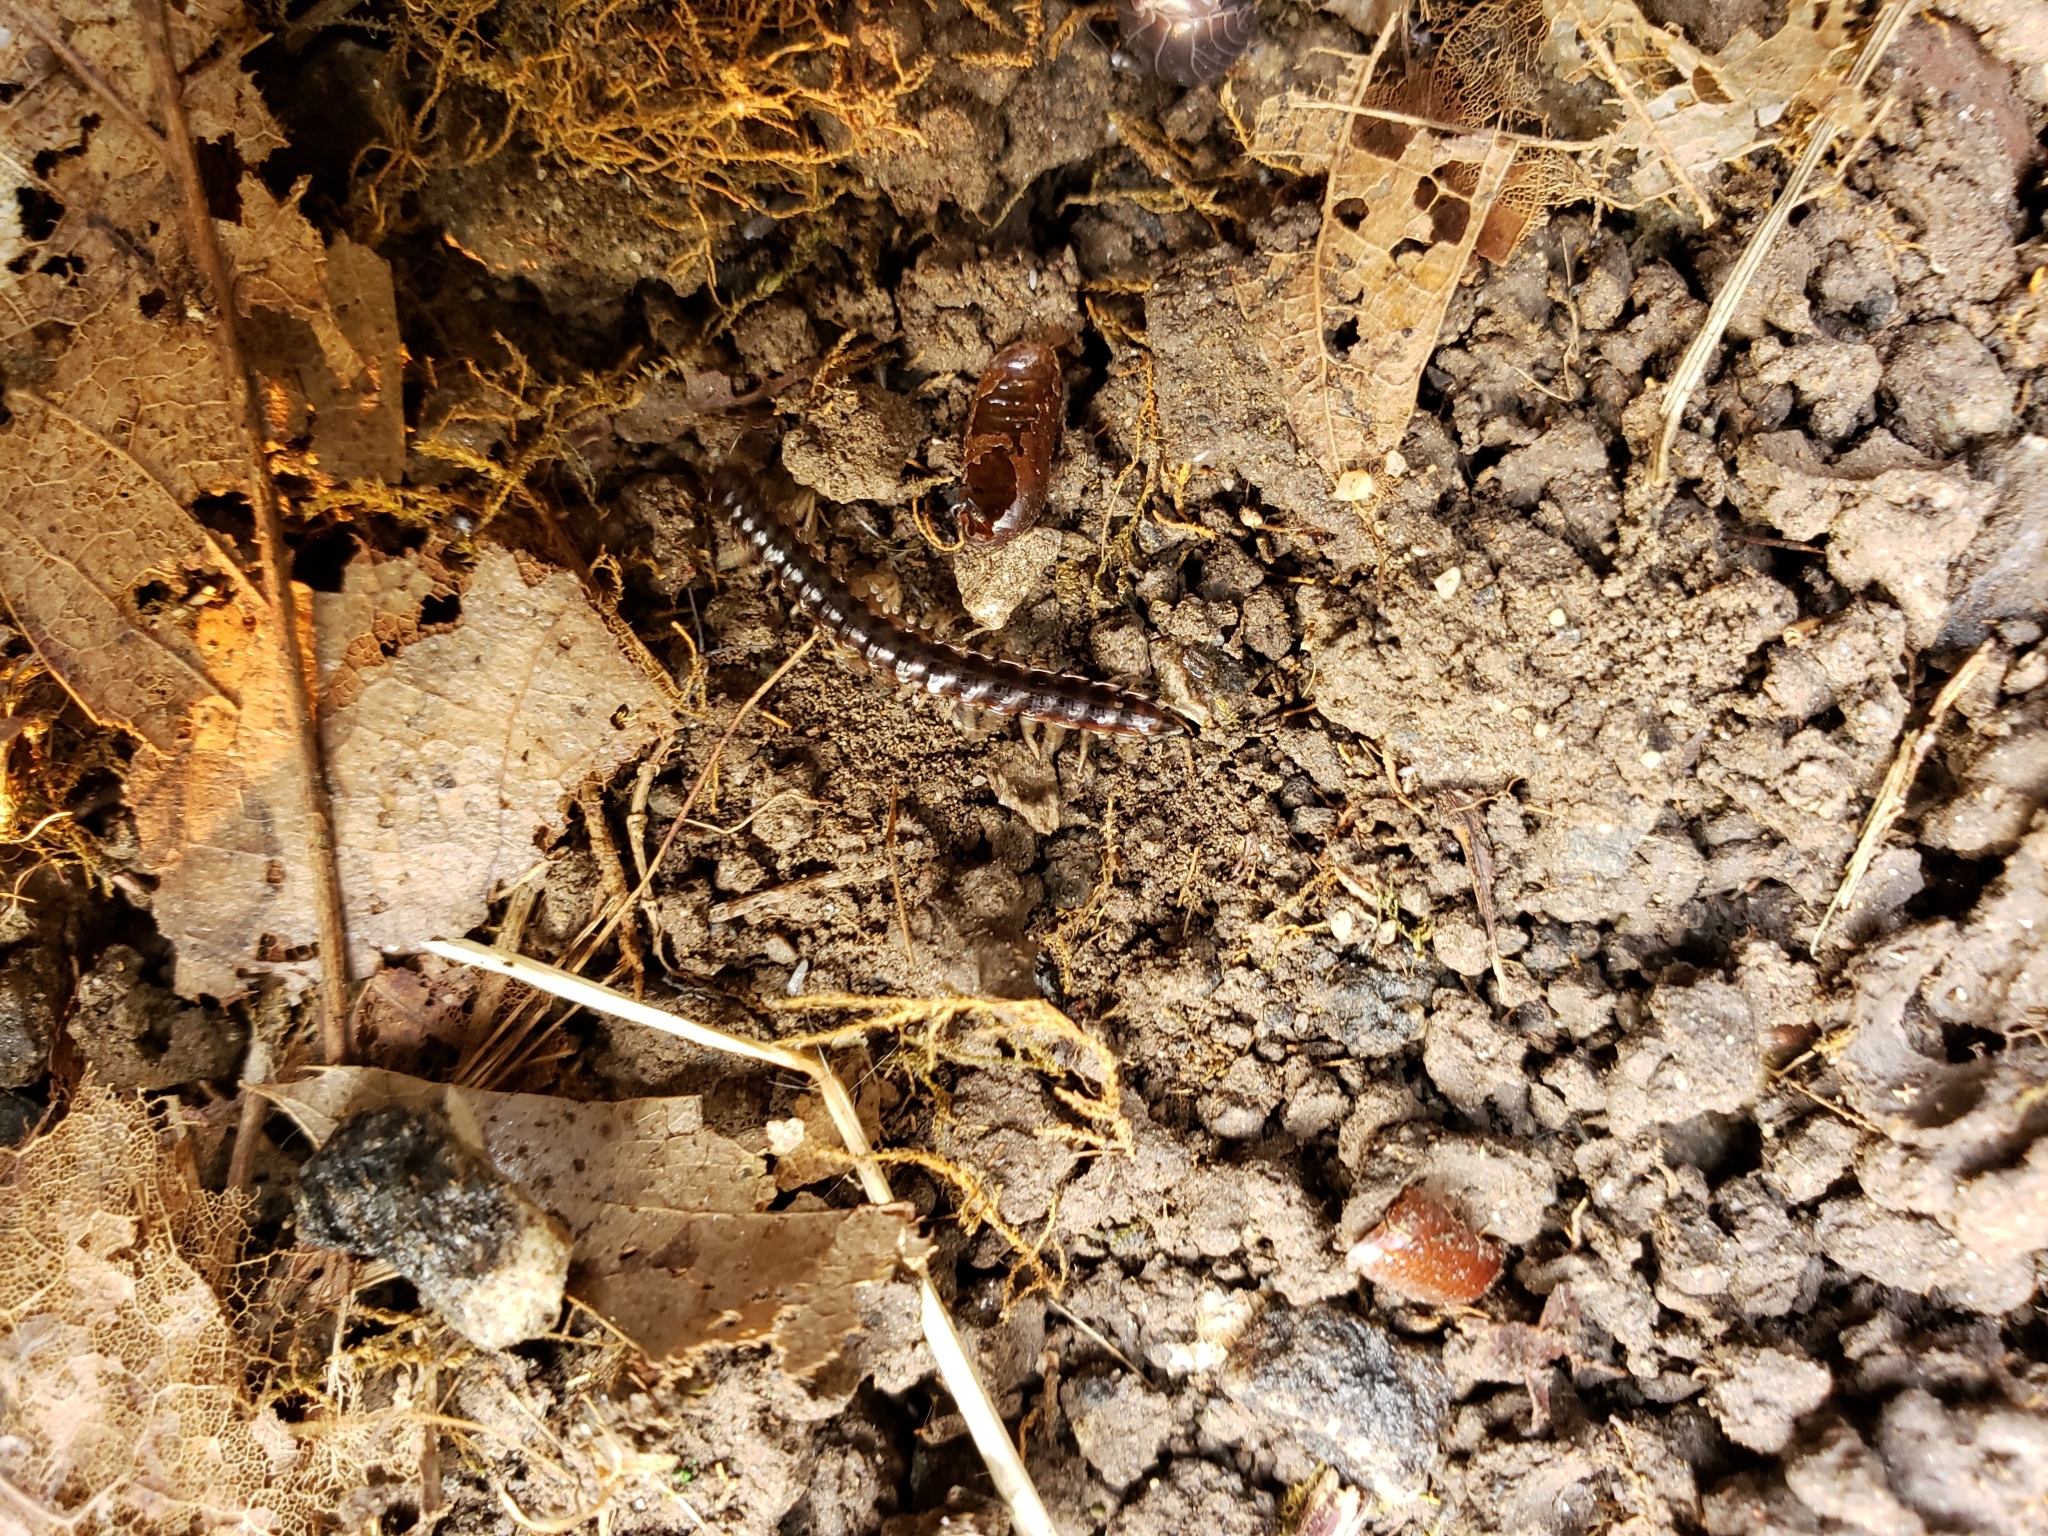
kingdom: Animalia
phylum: Arthropoda
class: Diplopoda
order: Polydesmida
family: Paradoxosomatidae
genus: Oxidus
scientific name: Oxidus gracilis
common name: Greenhouse millipede
